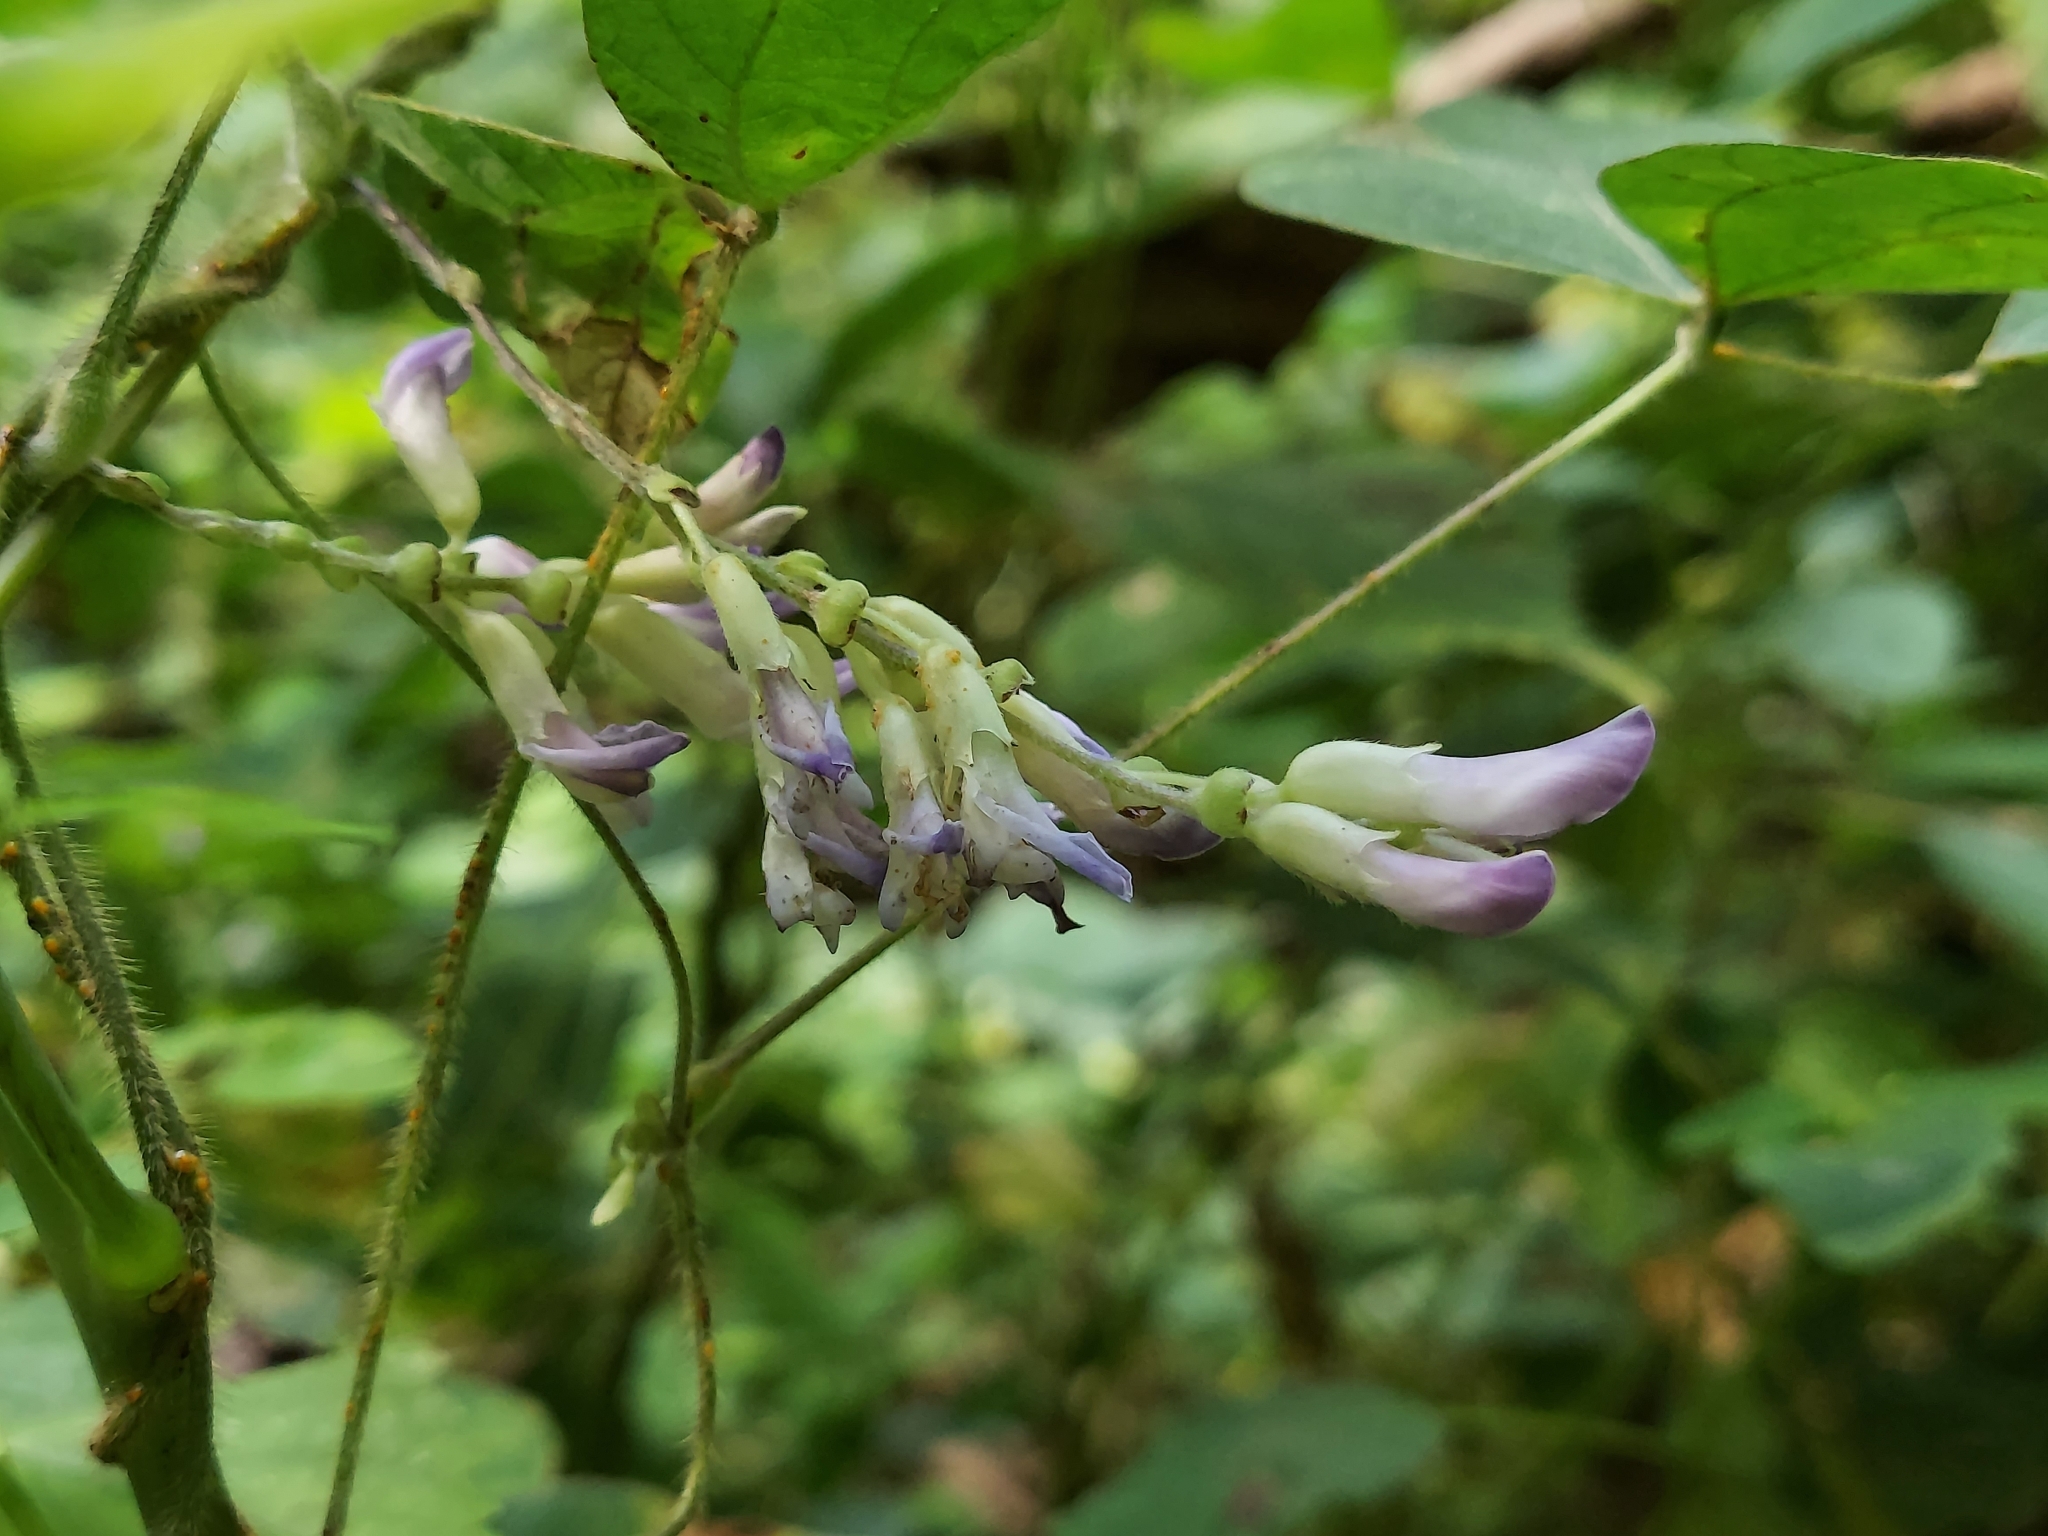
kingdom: Plantae
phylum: Tracheophyta
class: Magnoliopsida
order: Fabales
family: Fabaceae
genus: Amphicarpaea
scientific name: Amphicarpaea bracteata
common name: American hog peanut
